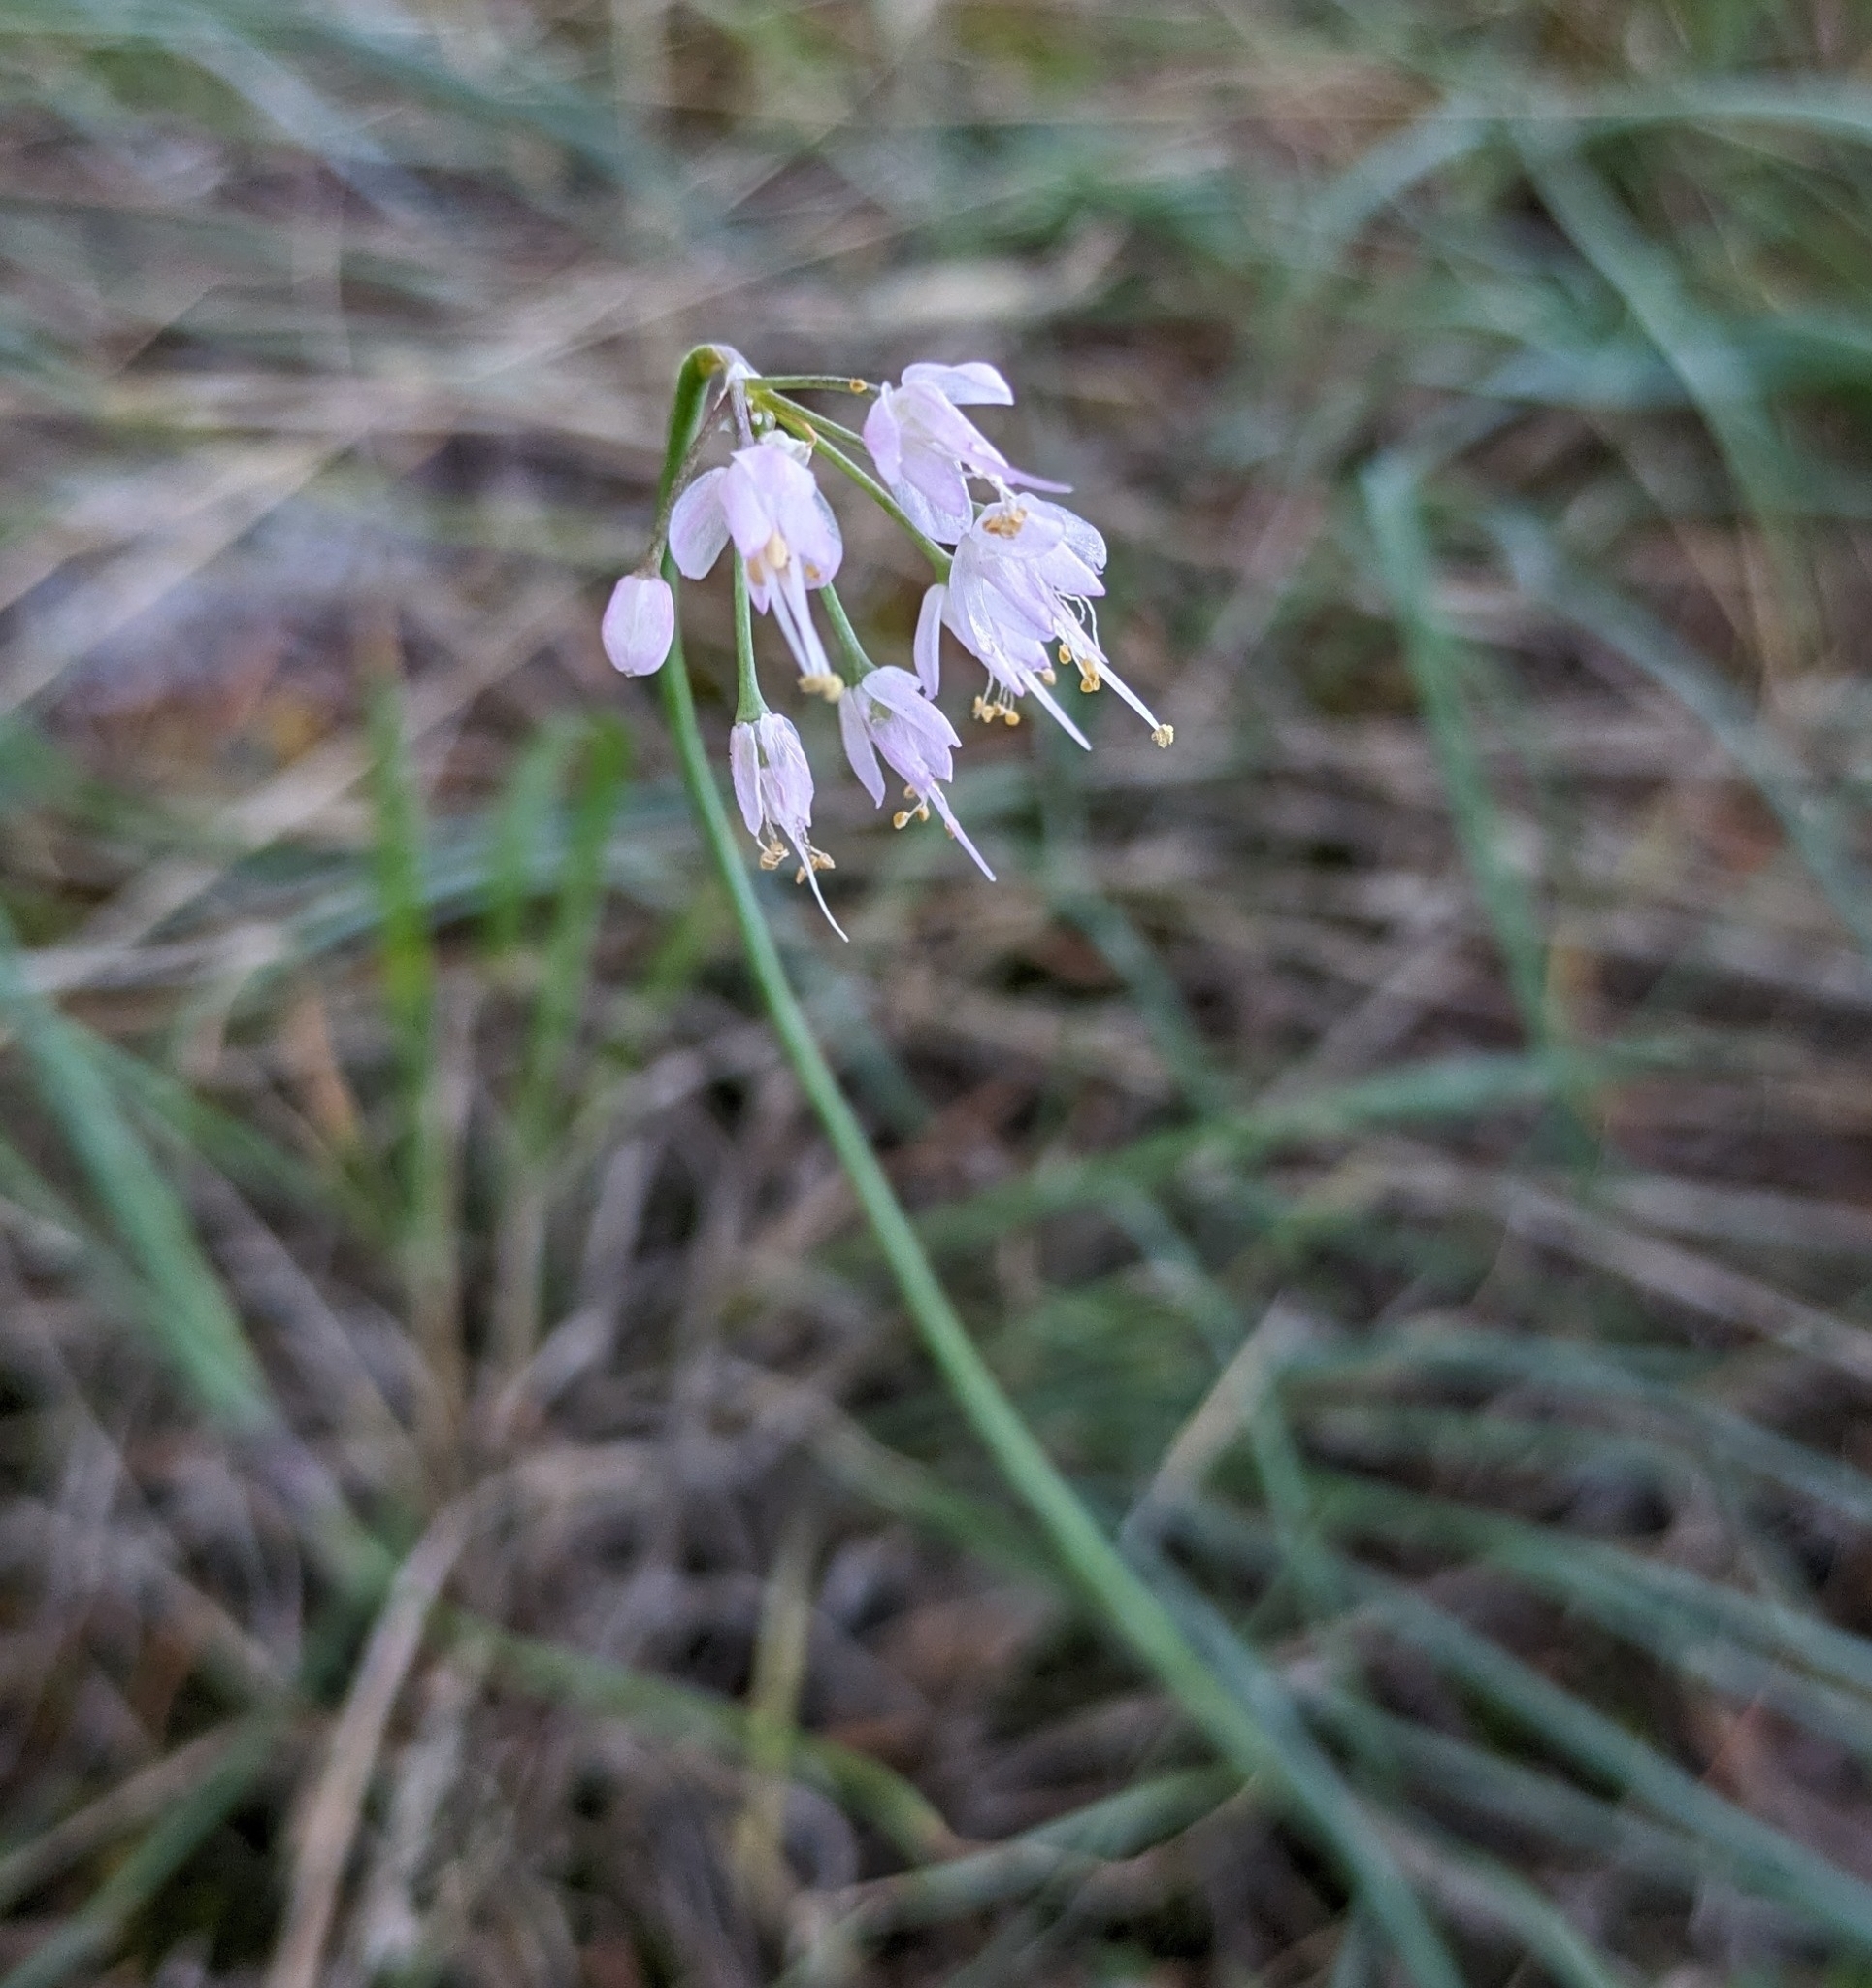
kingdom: Plantae
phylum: Tracheophyta
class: Liliopsida
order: Asparagales
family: Amaryllidaceae
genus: Allium
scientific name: Allium cernuum
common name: Nodding onion
